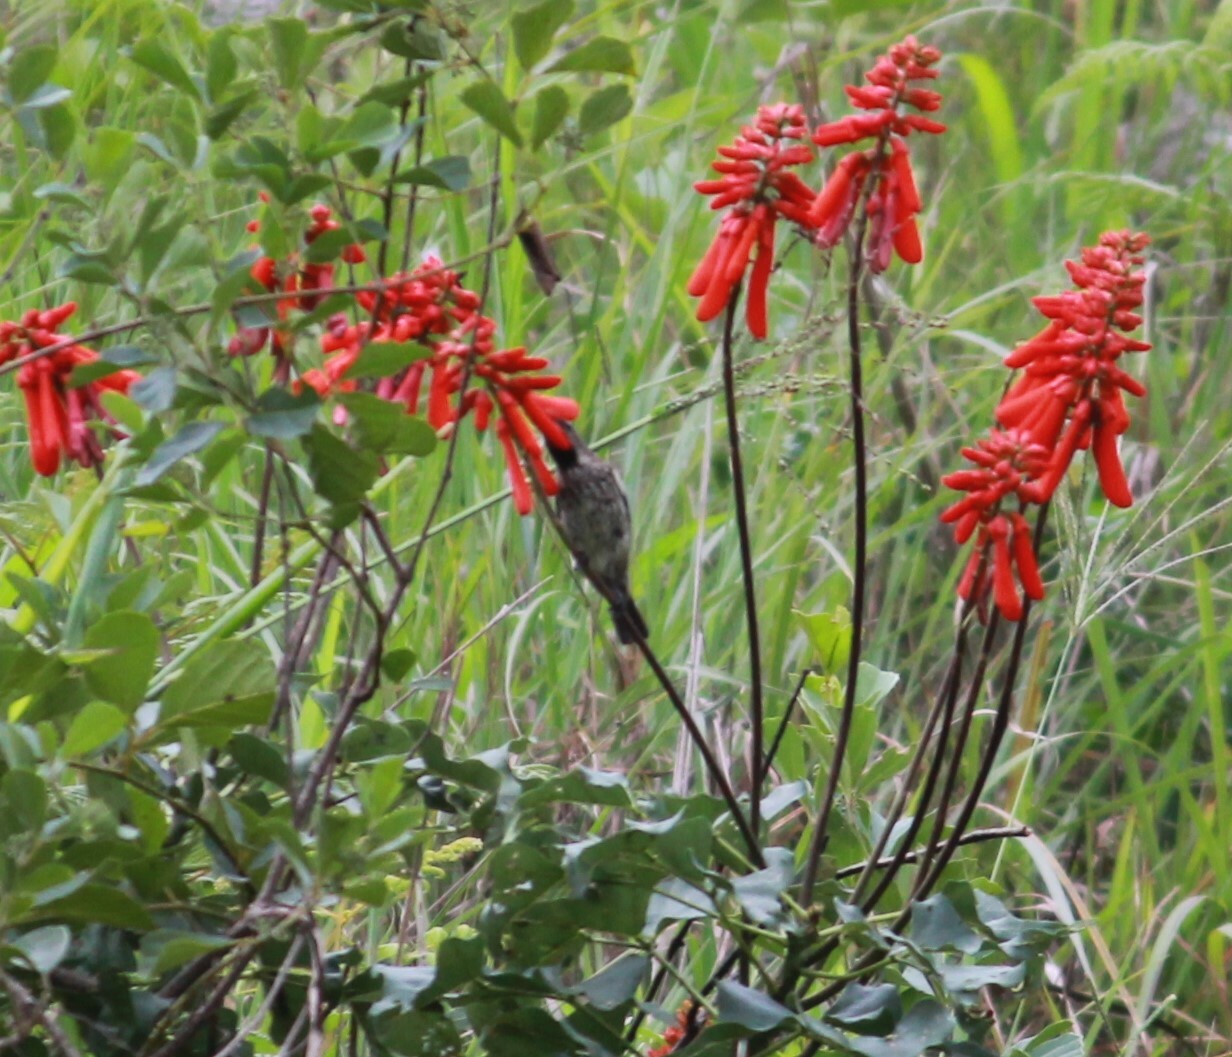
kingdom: Animalia
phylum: Chordata
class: Aves
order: Passeriformes
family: Nectariniidae
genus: Chalcomitra
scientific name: Chalcomitra amethystina
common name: Amethyst sunbird
